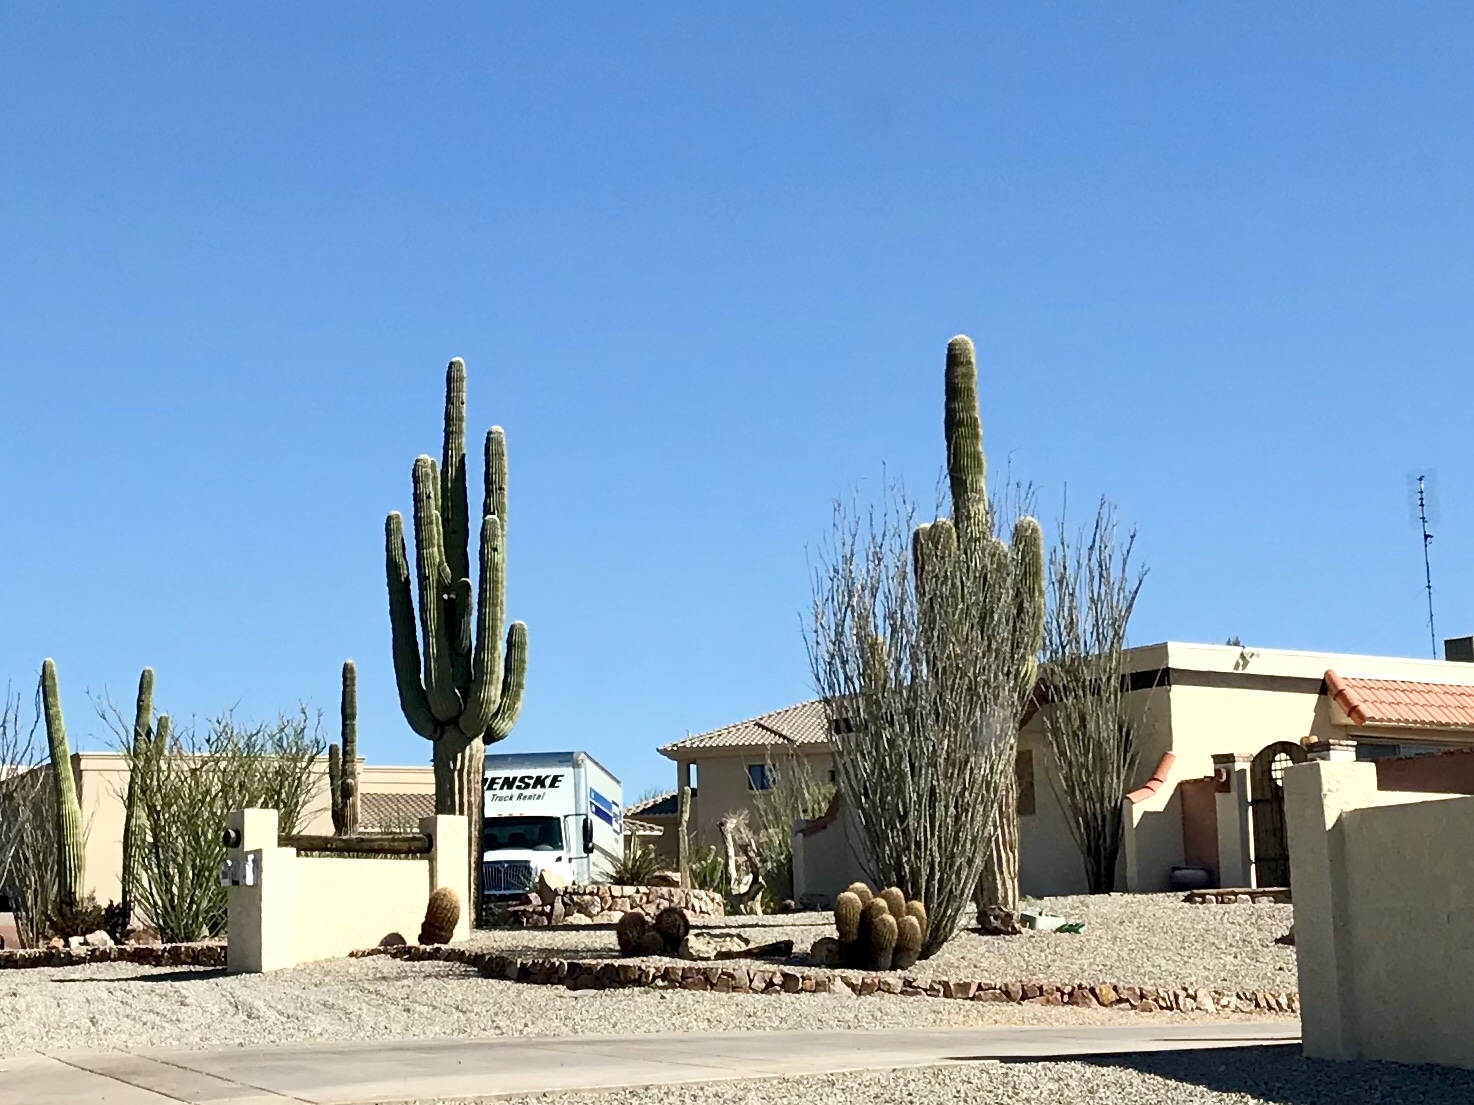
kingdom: Plantae
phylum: Tracheophyta
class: Magnoliopsida
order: Caryophyllales
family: Cactaceae
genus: Carnegiea
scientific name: Carnegiea gigantea
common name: Saguaro
